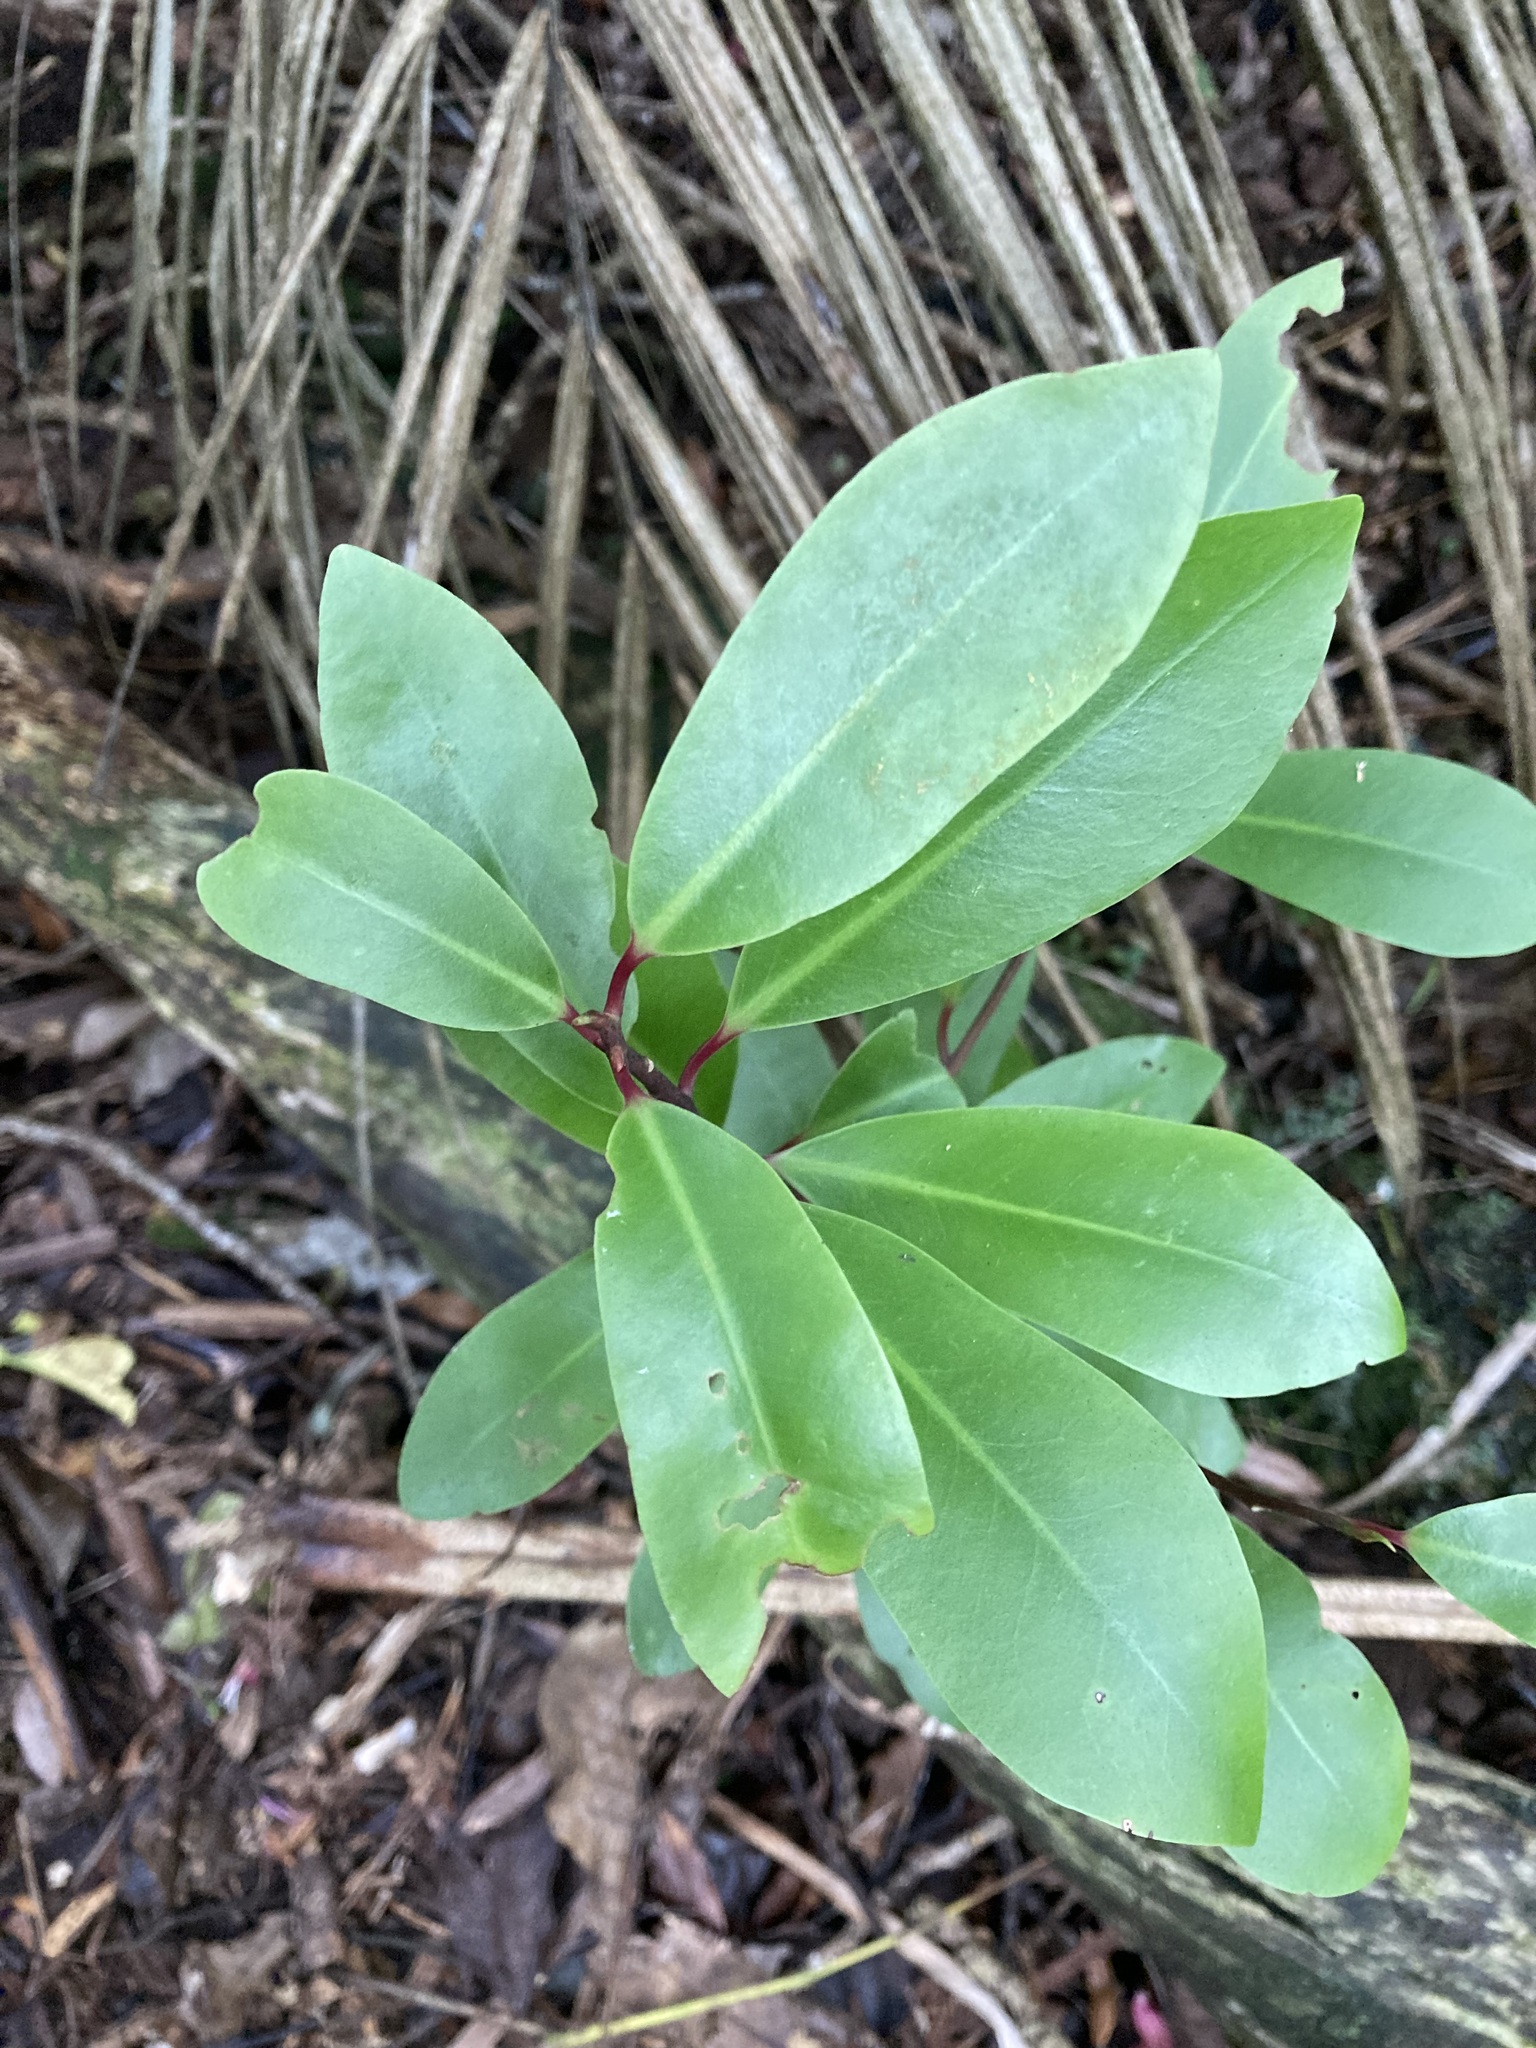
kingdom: Plantae
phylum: Tracheophyta
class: Magnoliopsida
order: Canellales
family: Winteraceae
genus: Pseudowintera
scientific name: Pseudowintera axillaris
